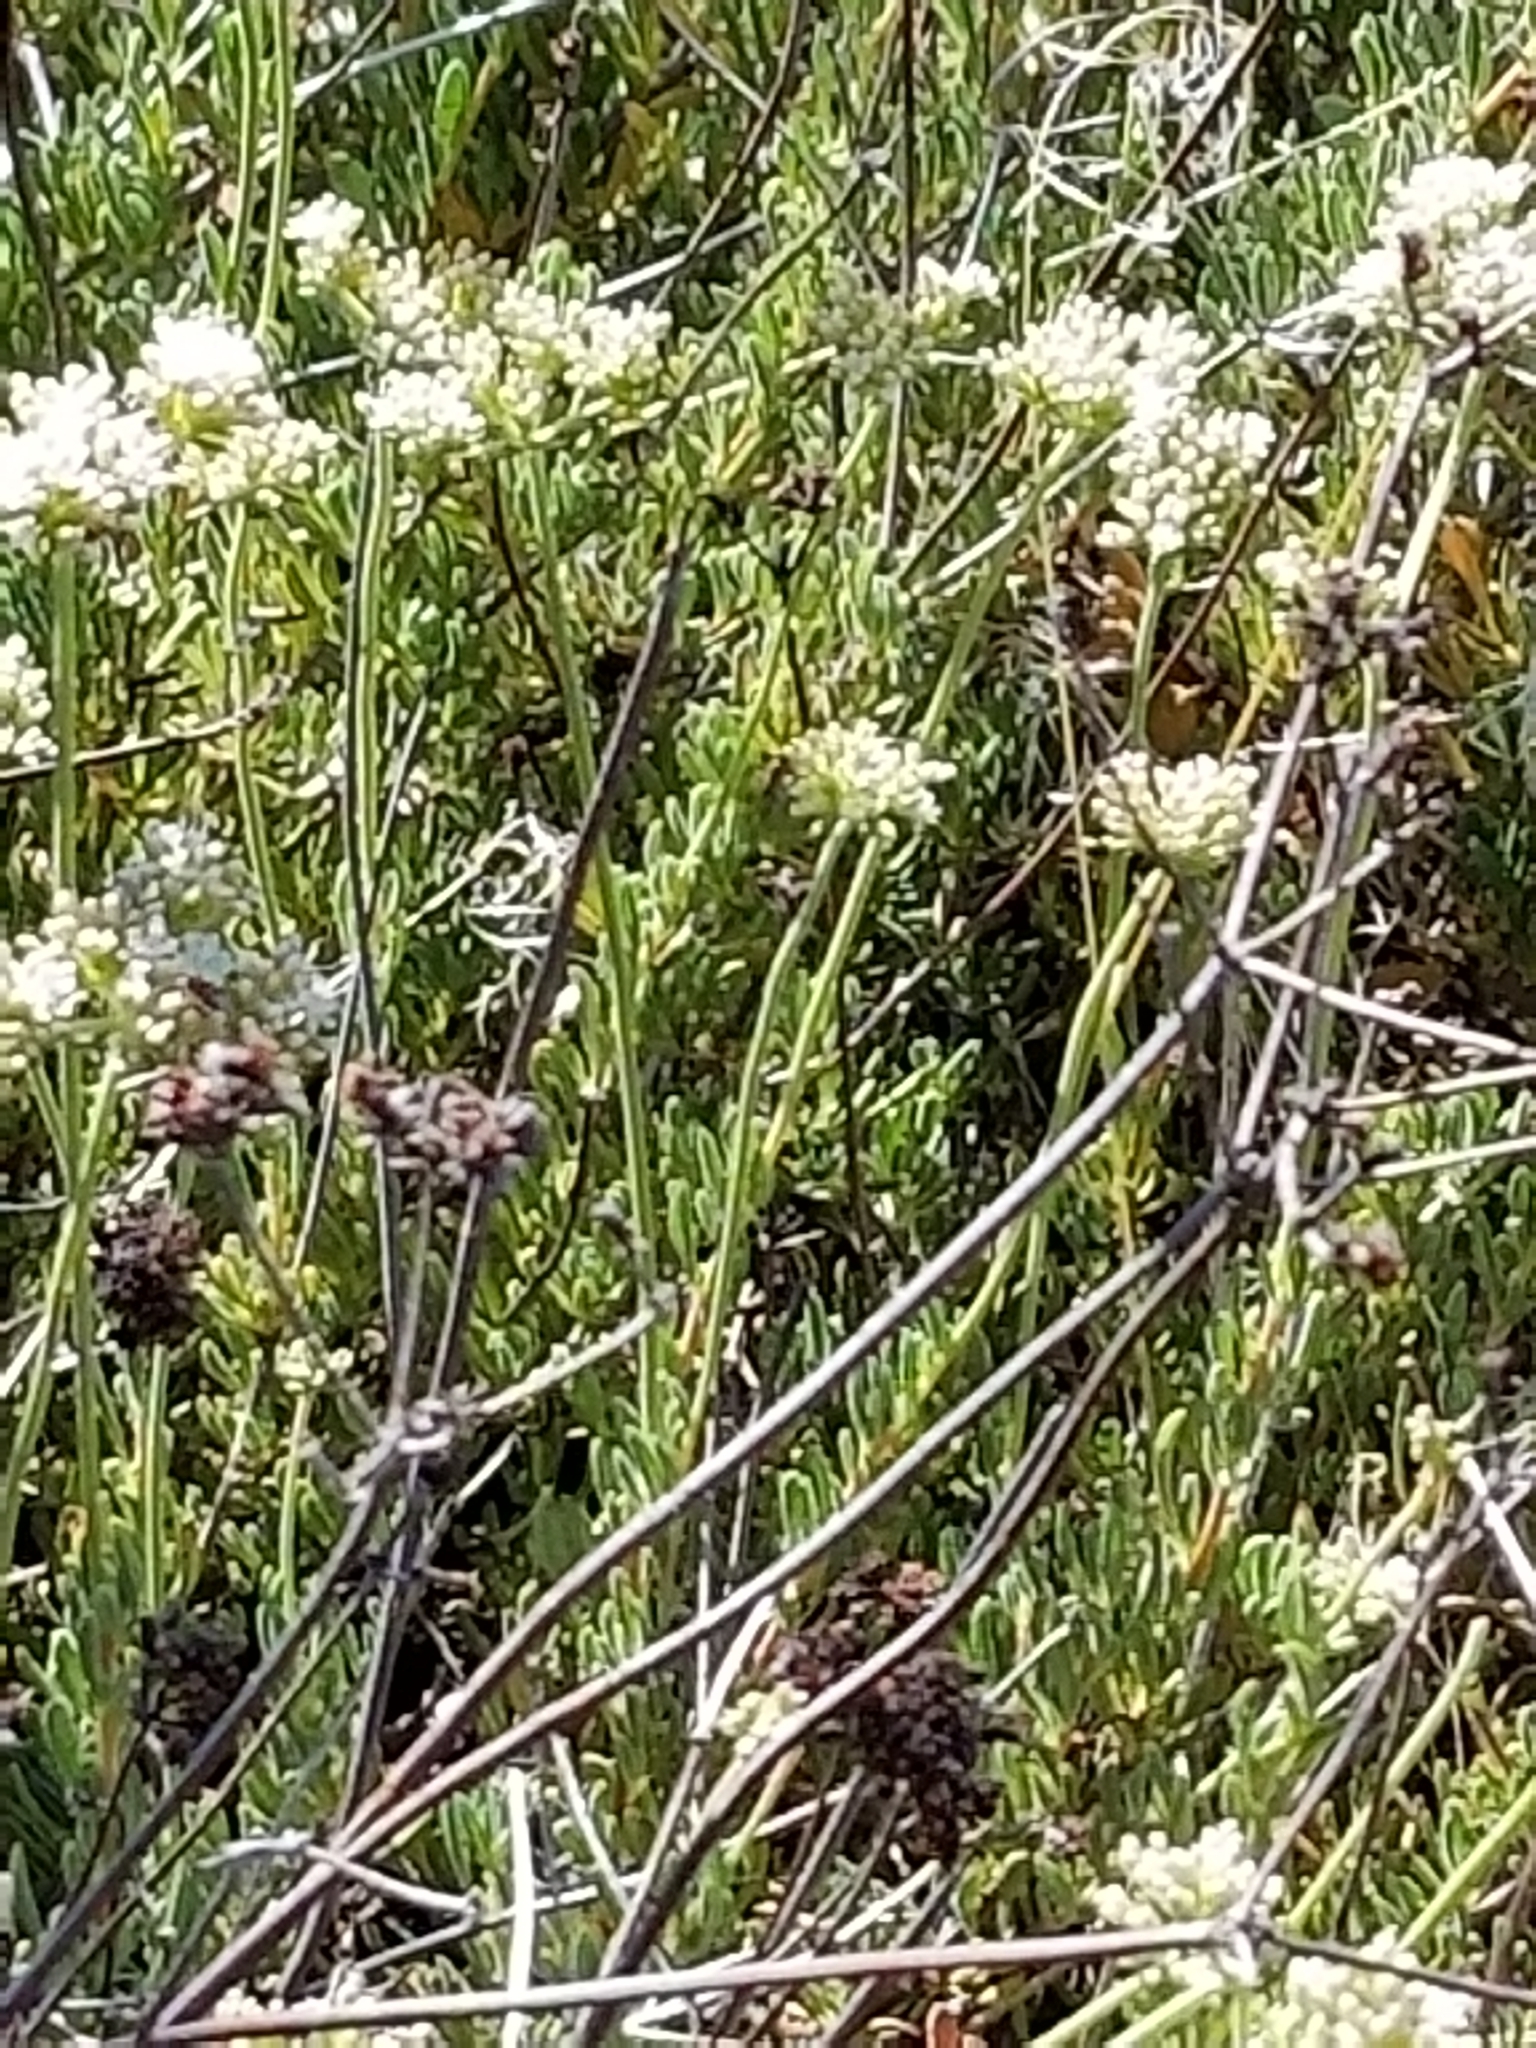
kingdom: Plantae
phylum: Tracheophyta
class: Magnoliopsida
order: Caryophyllales
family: Polygonaceae
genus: Eriogonum
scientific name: Eriogonum fasciculatum
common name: California wild buckwheat
